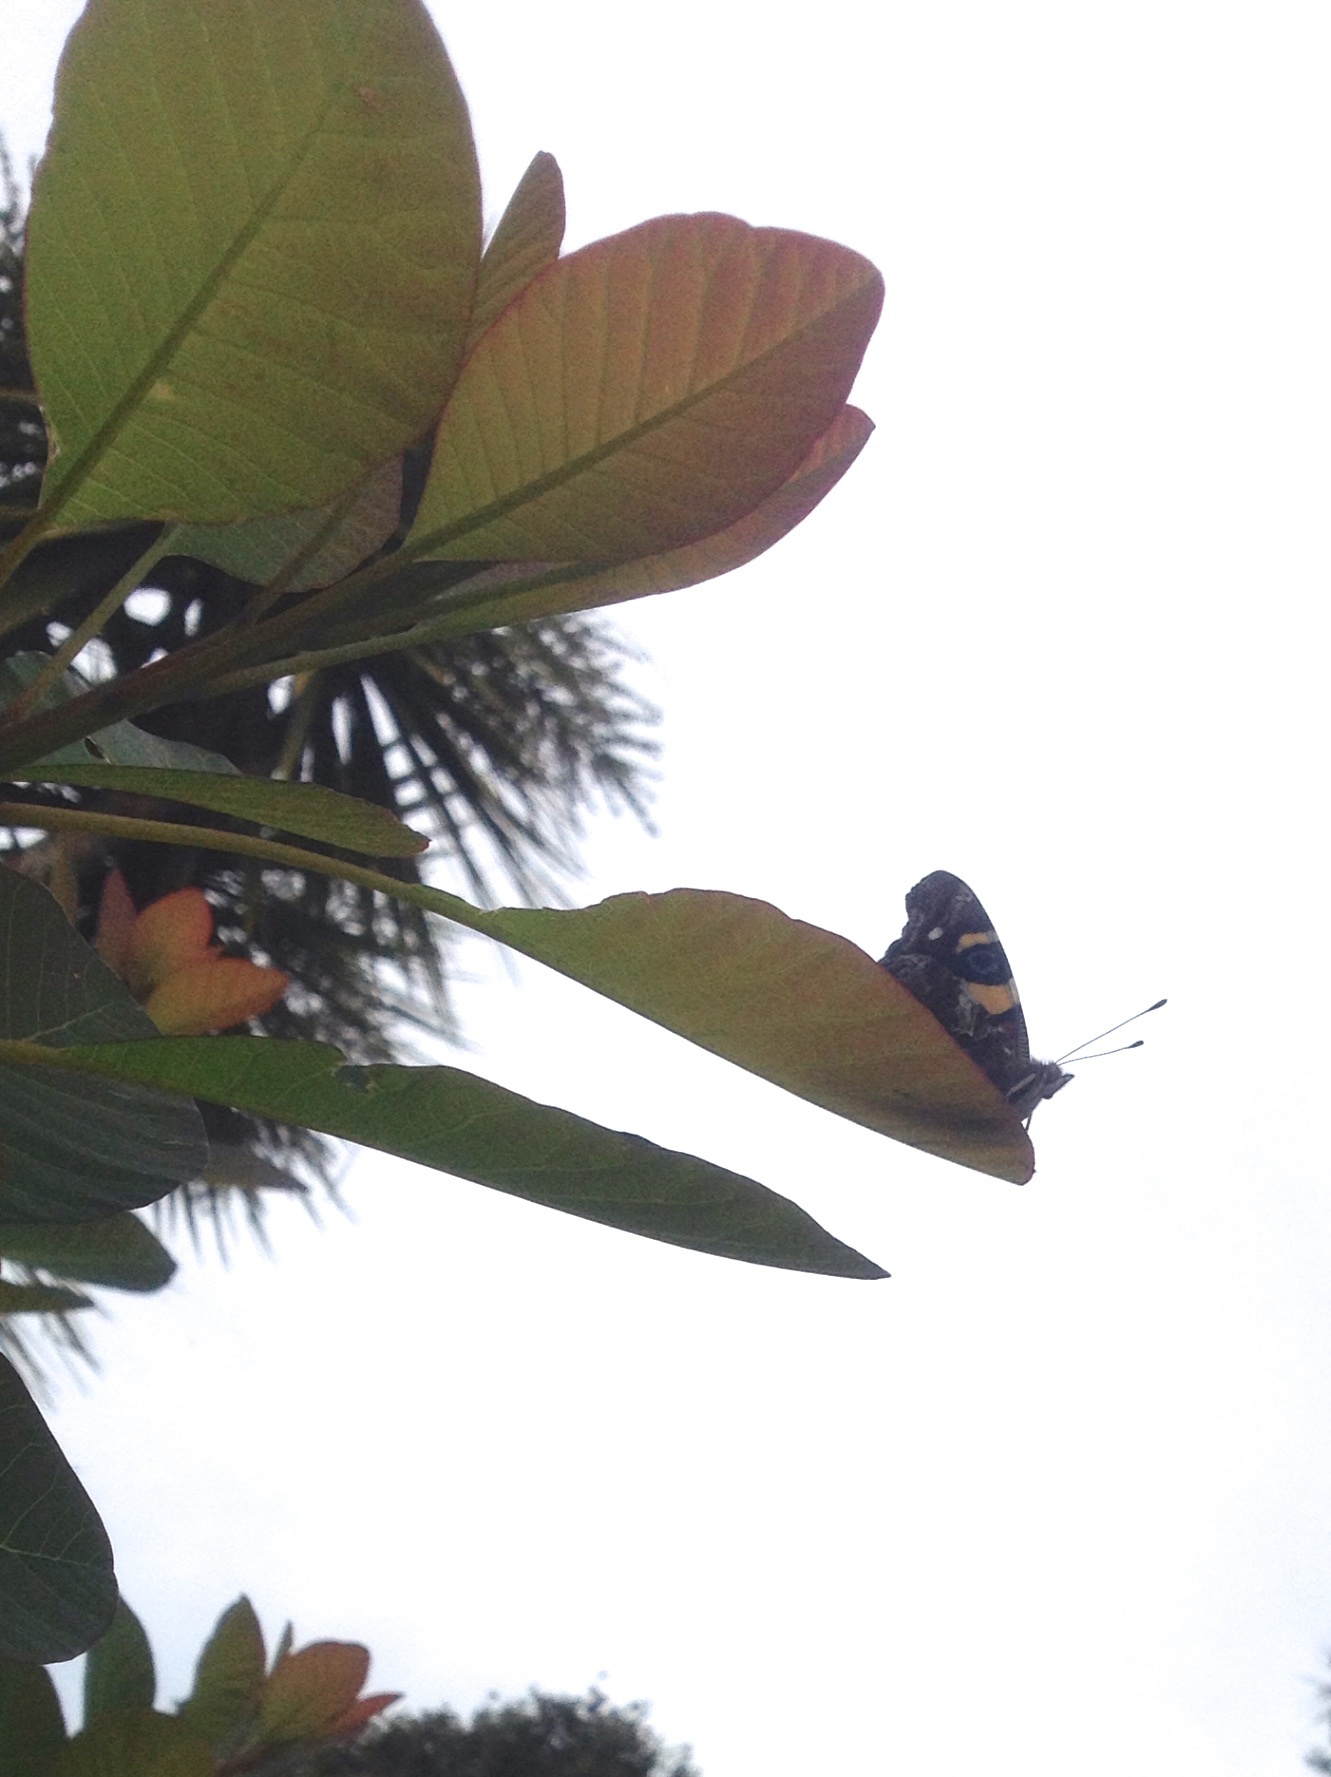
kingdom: Animalia
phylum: Arthropoda
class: Insecta
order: Lepidoptera
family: Nymphalidae
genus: Vanessa
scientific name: Vanessa itea
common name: Yellow admiral
